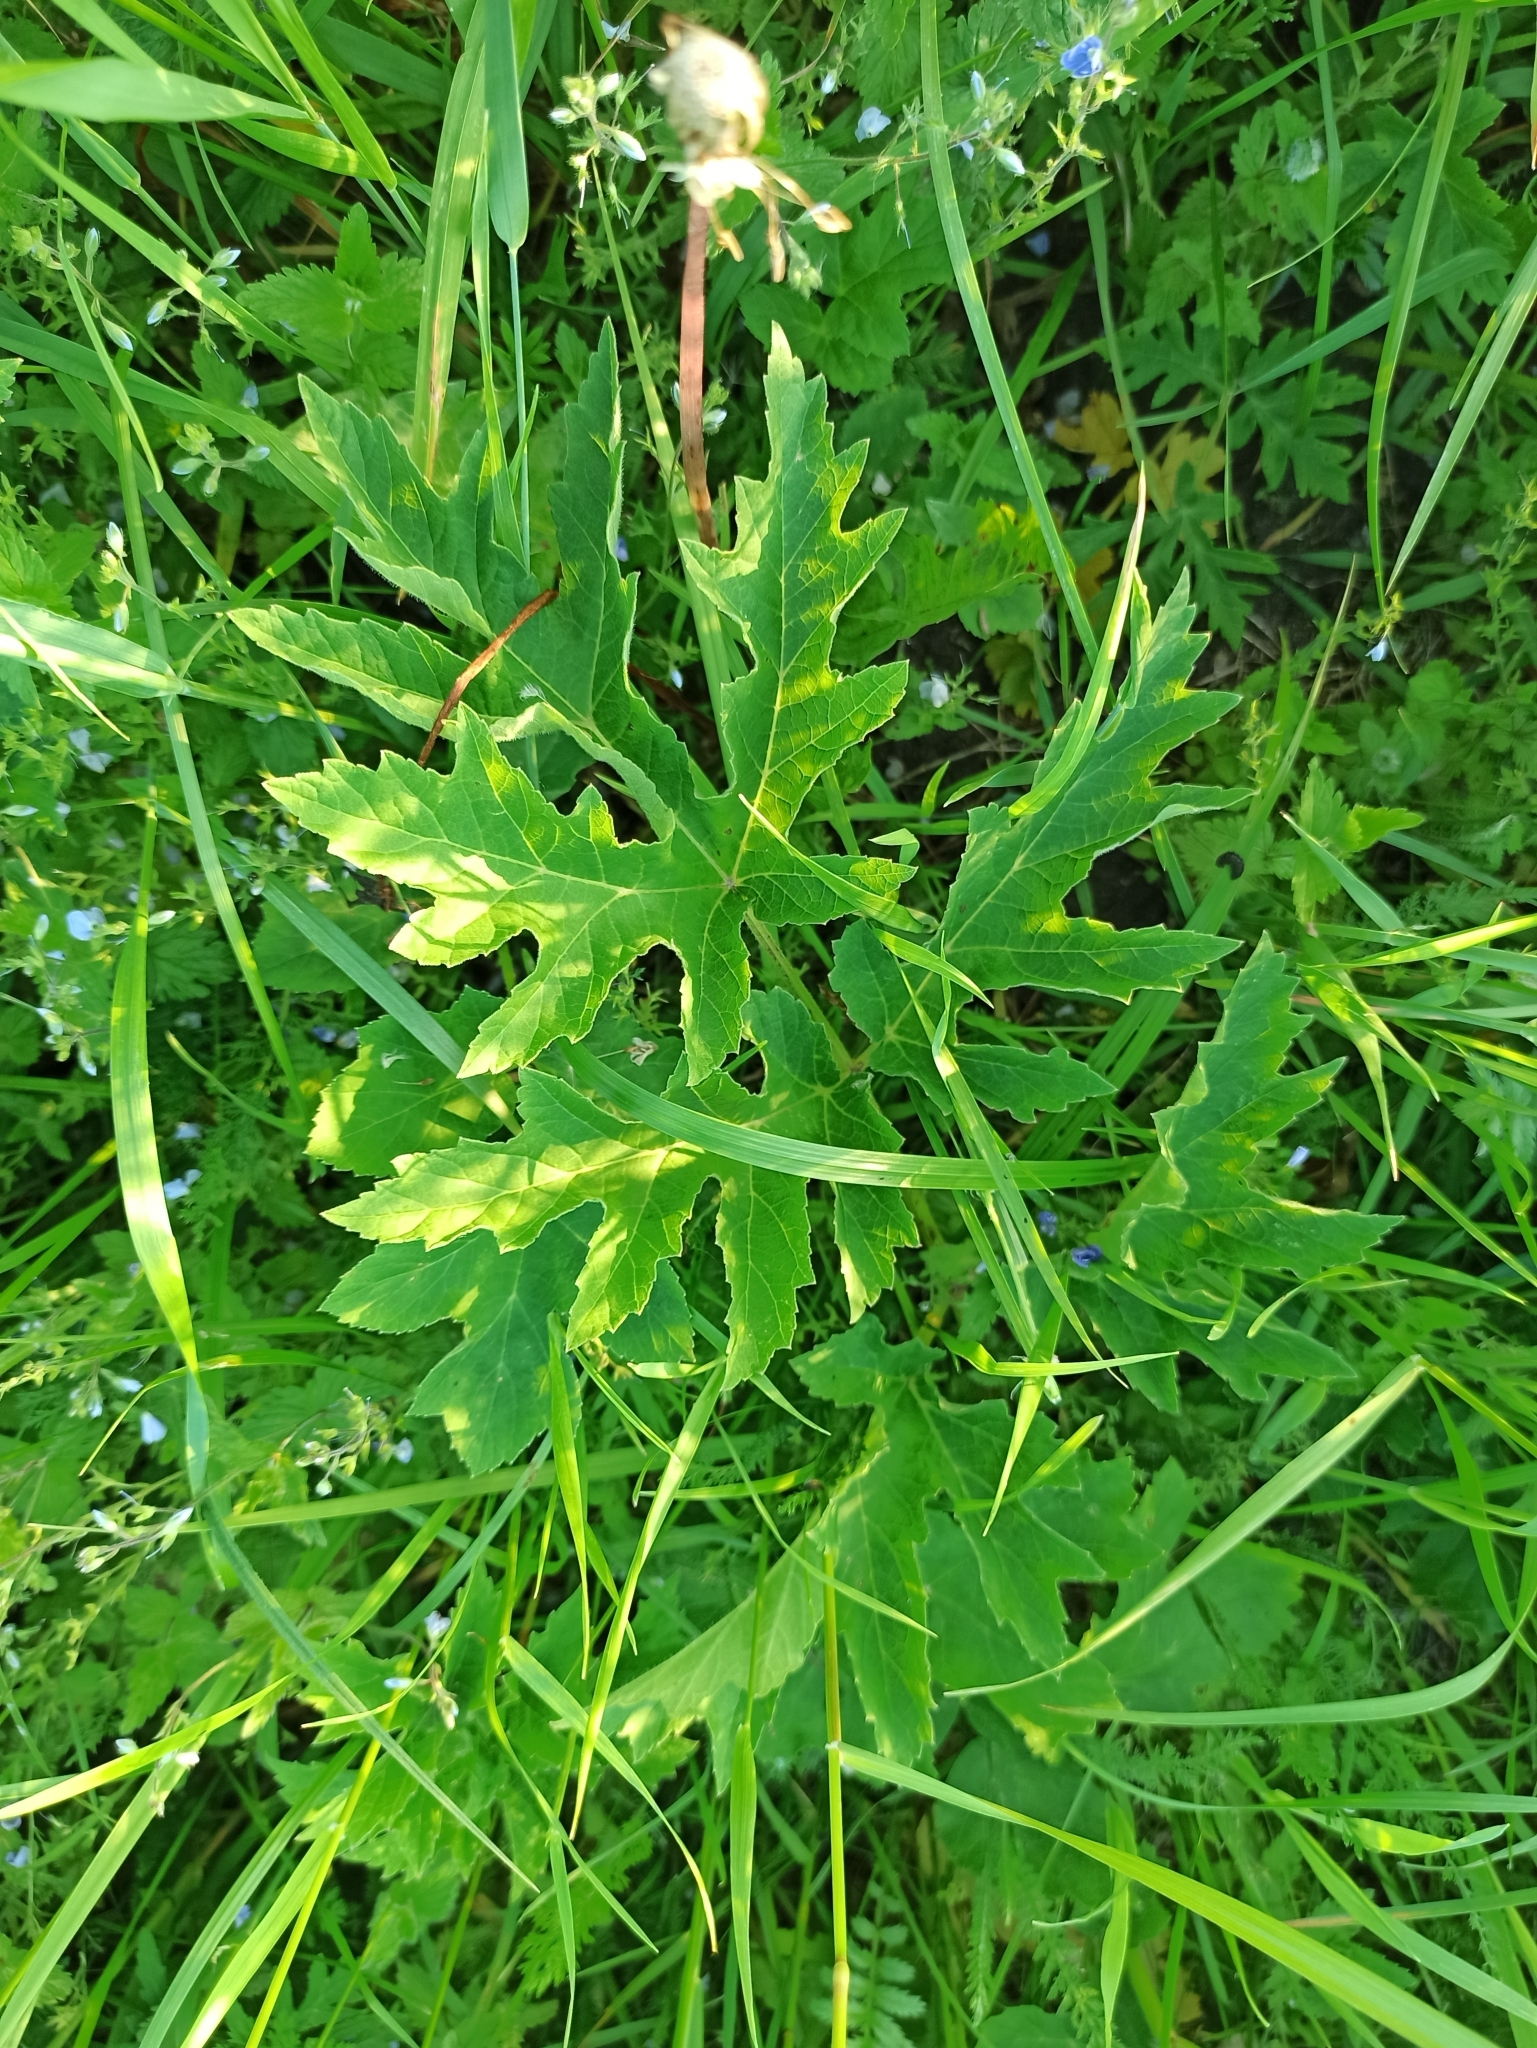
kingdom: Plantae
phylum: Tracheophyta
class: Magnoliopsida
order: Apiales
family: Apiaceae
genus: Heracleum
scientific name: Heracleum sphondylium
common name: Hogweed
